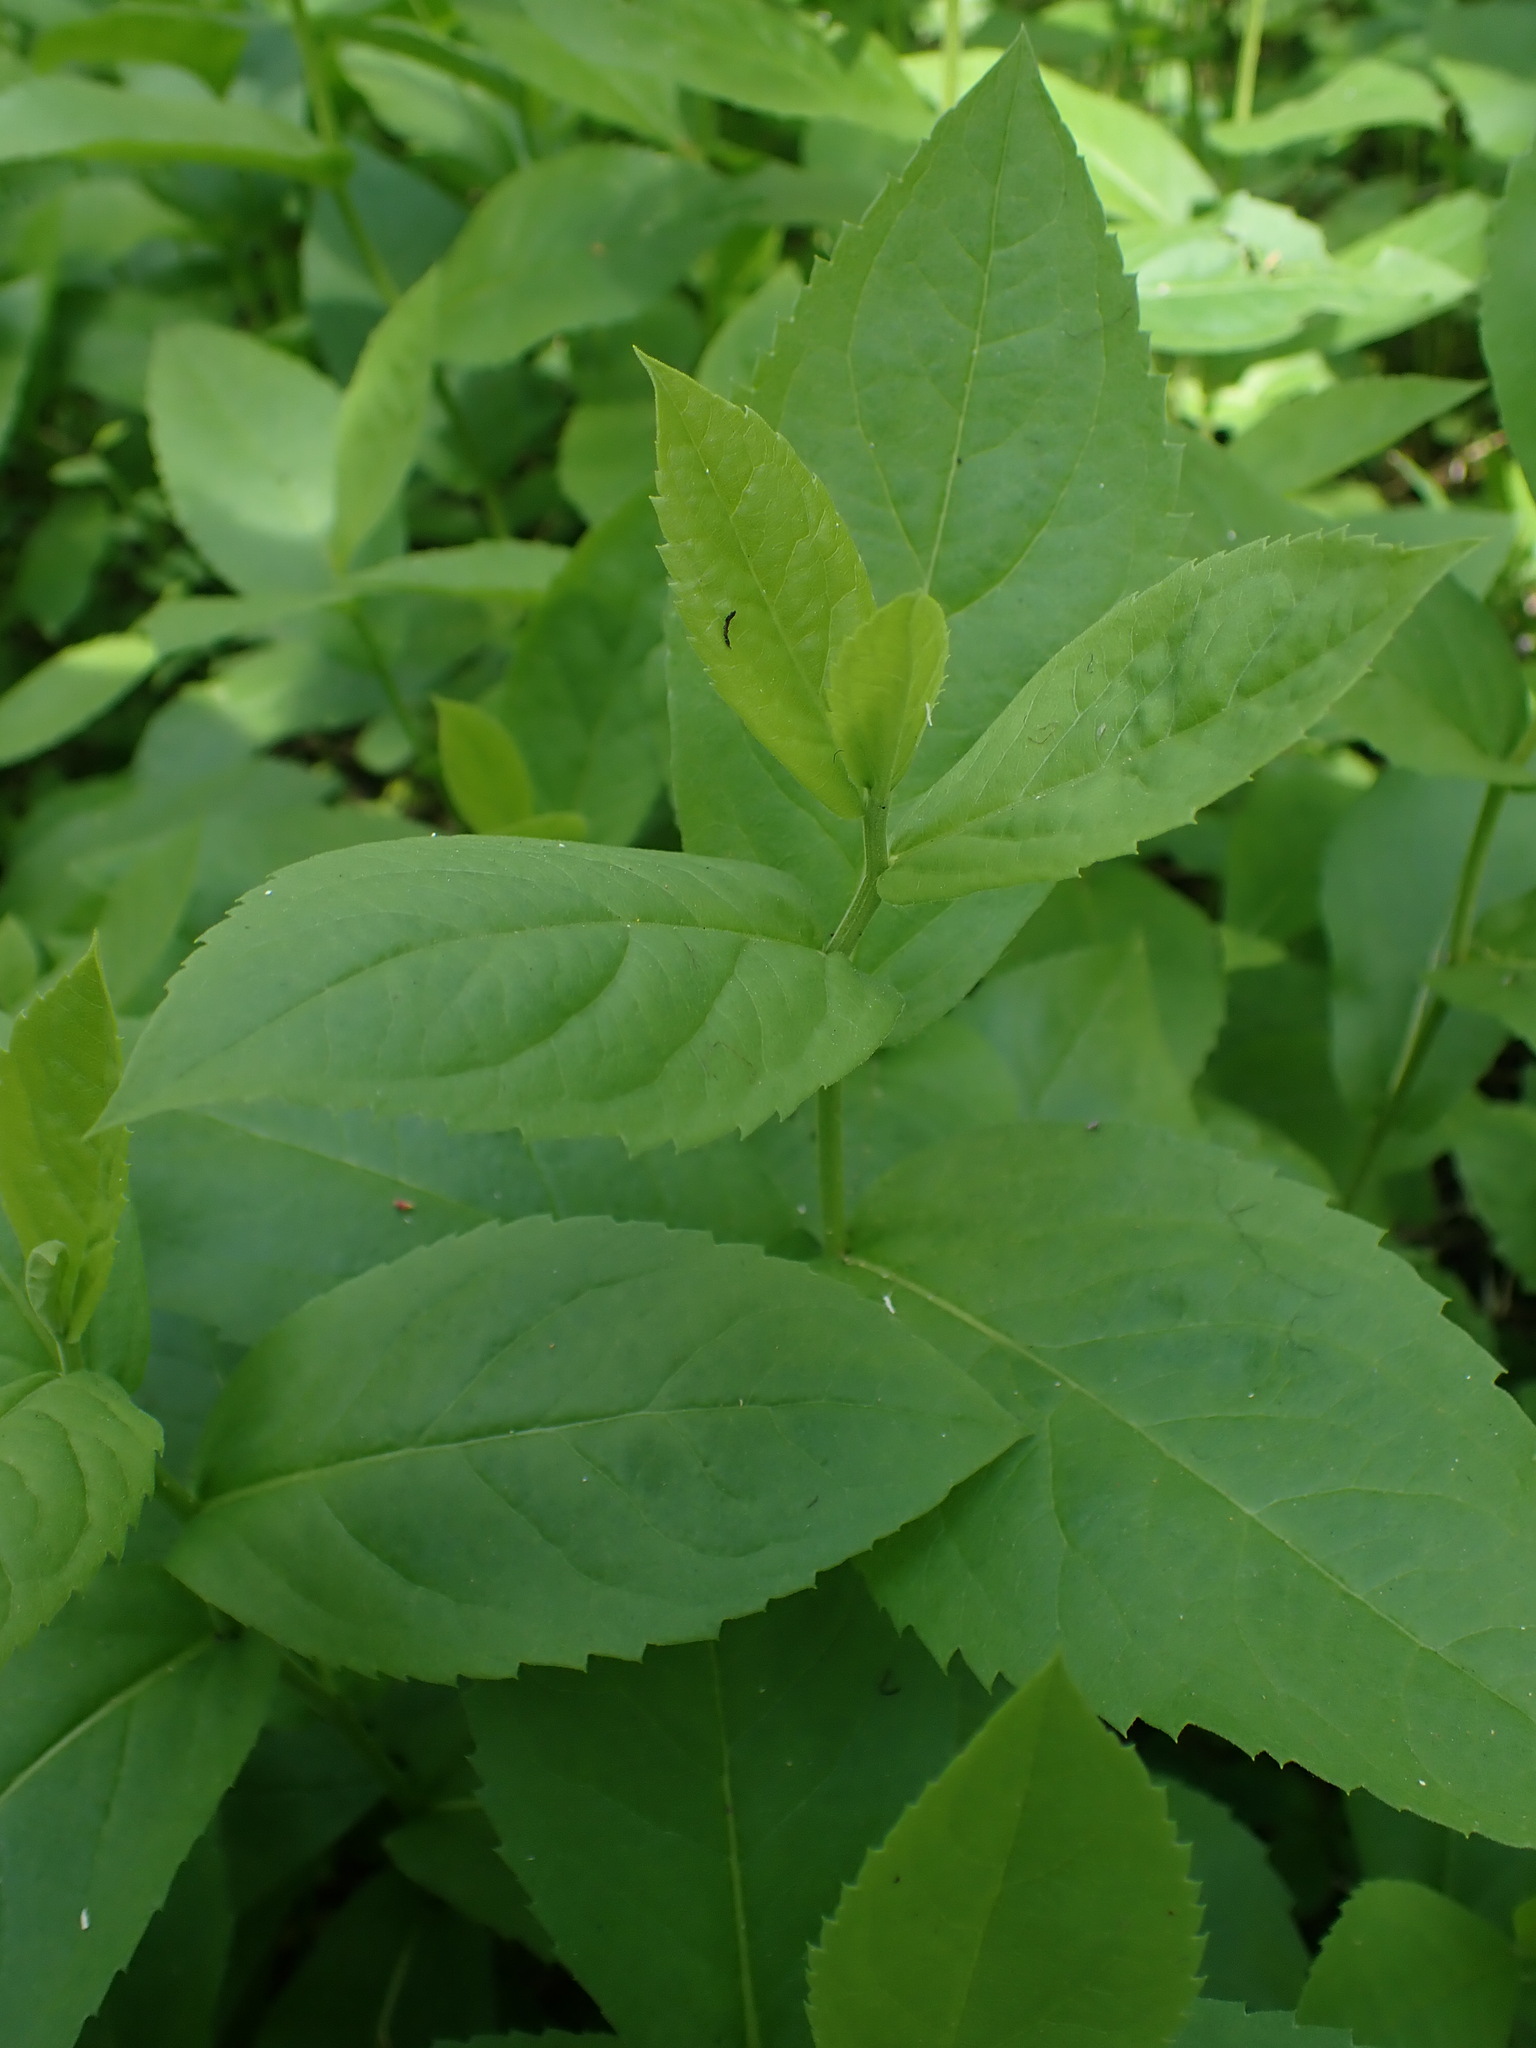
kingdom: Plantae
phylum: Tracheophyta
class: Magnoliopsida
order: Asterales
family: Asteraceae
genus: Eurybia
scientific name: Eurybia conspicua
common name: Showy aster
